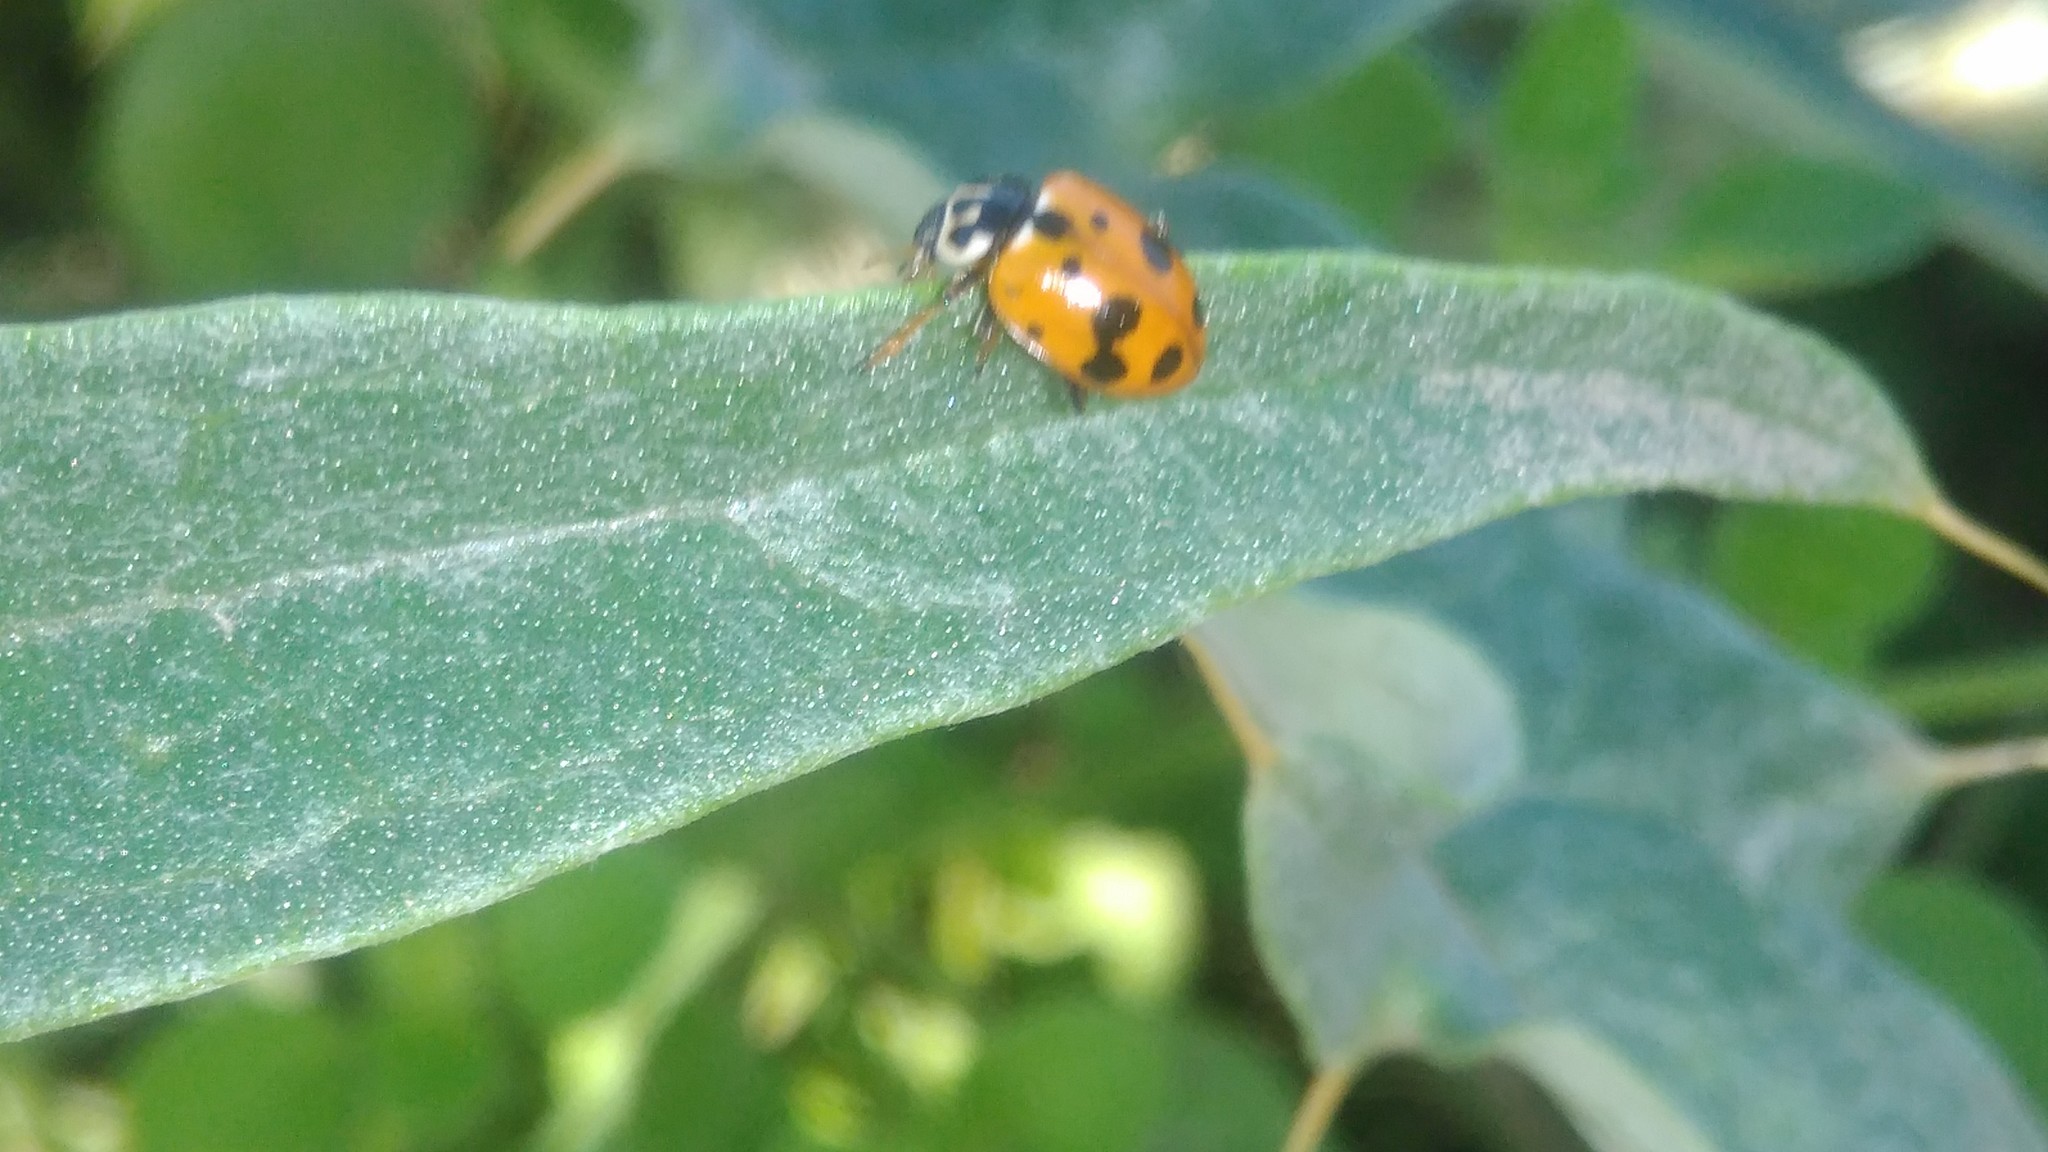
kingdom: Animalia
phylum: Arthropoda
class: Insecta
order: Coleoptera
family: Coccinellidae
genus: Hippodamia
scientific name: Hippodamia variegata
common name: Ladybird beetle
